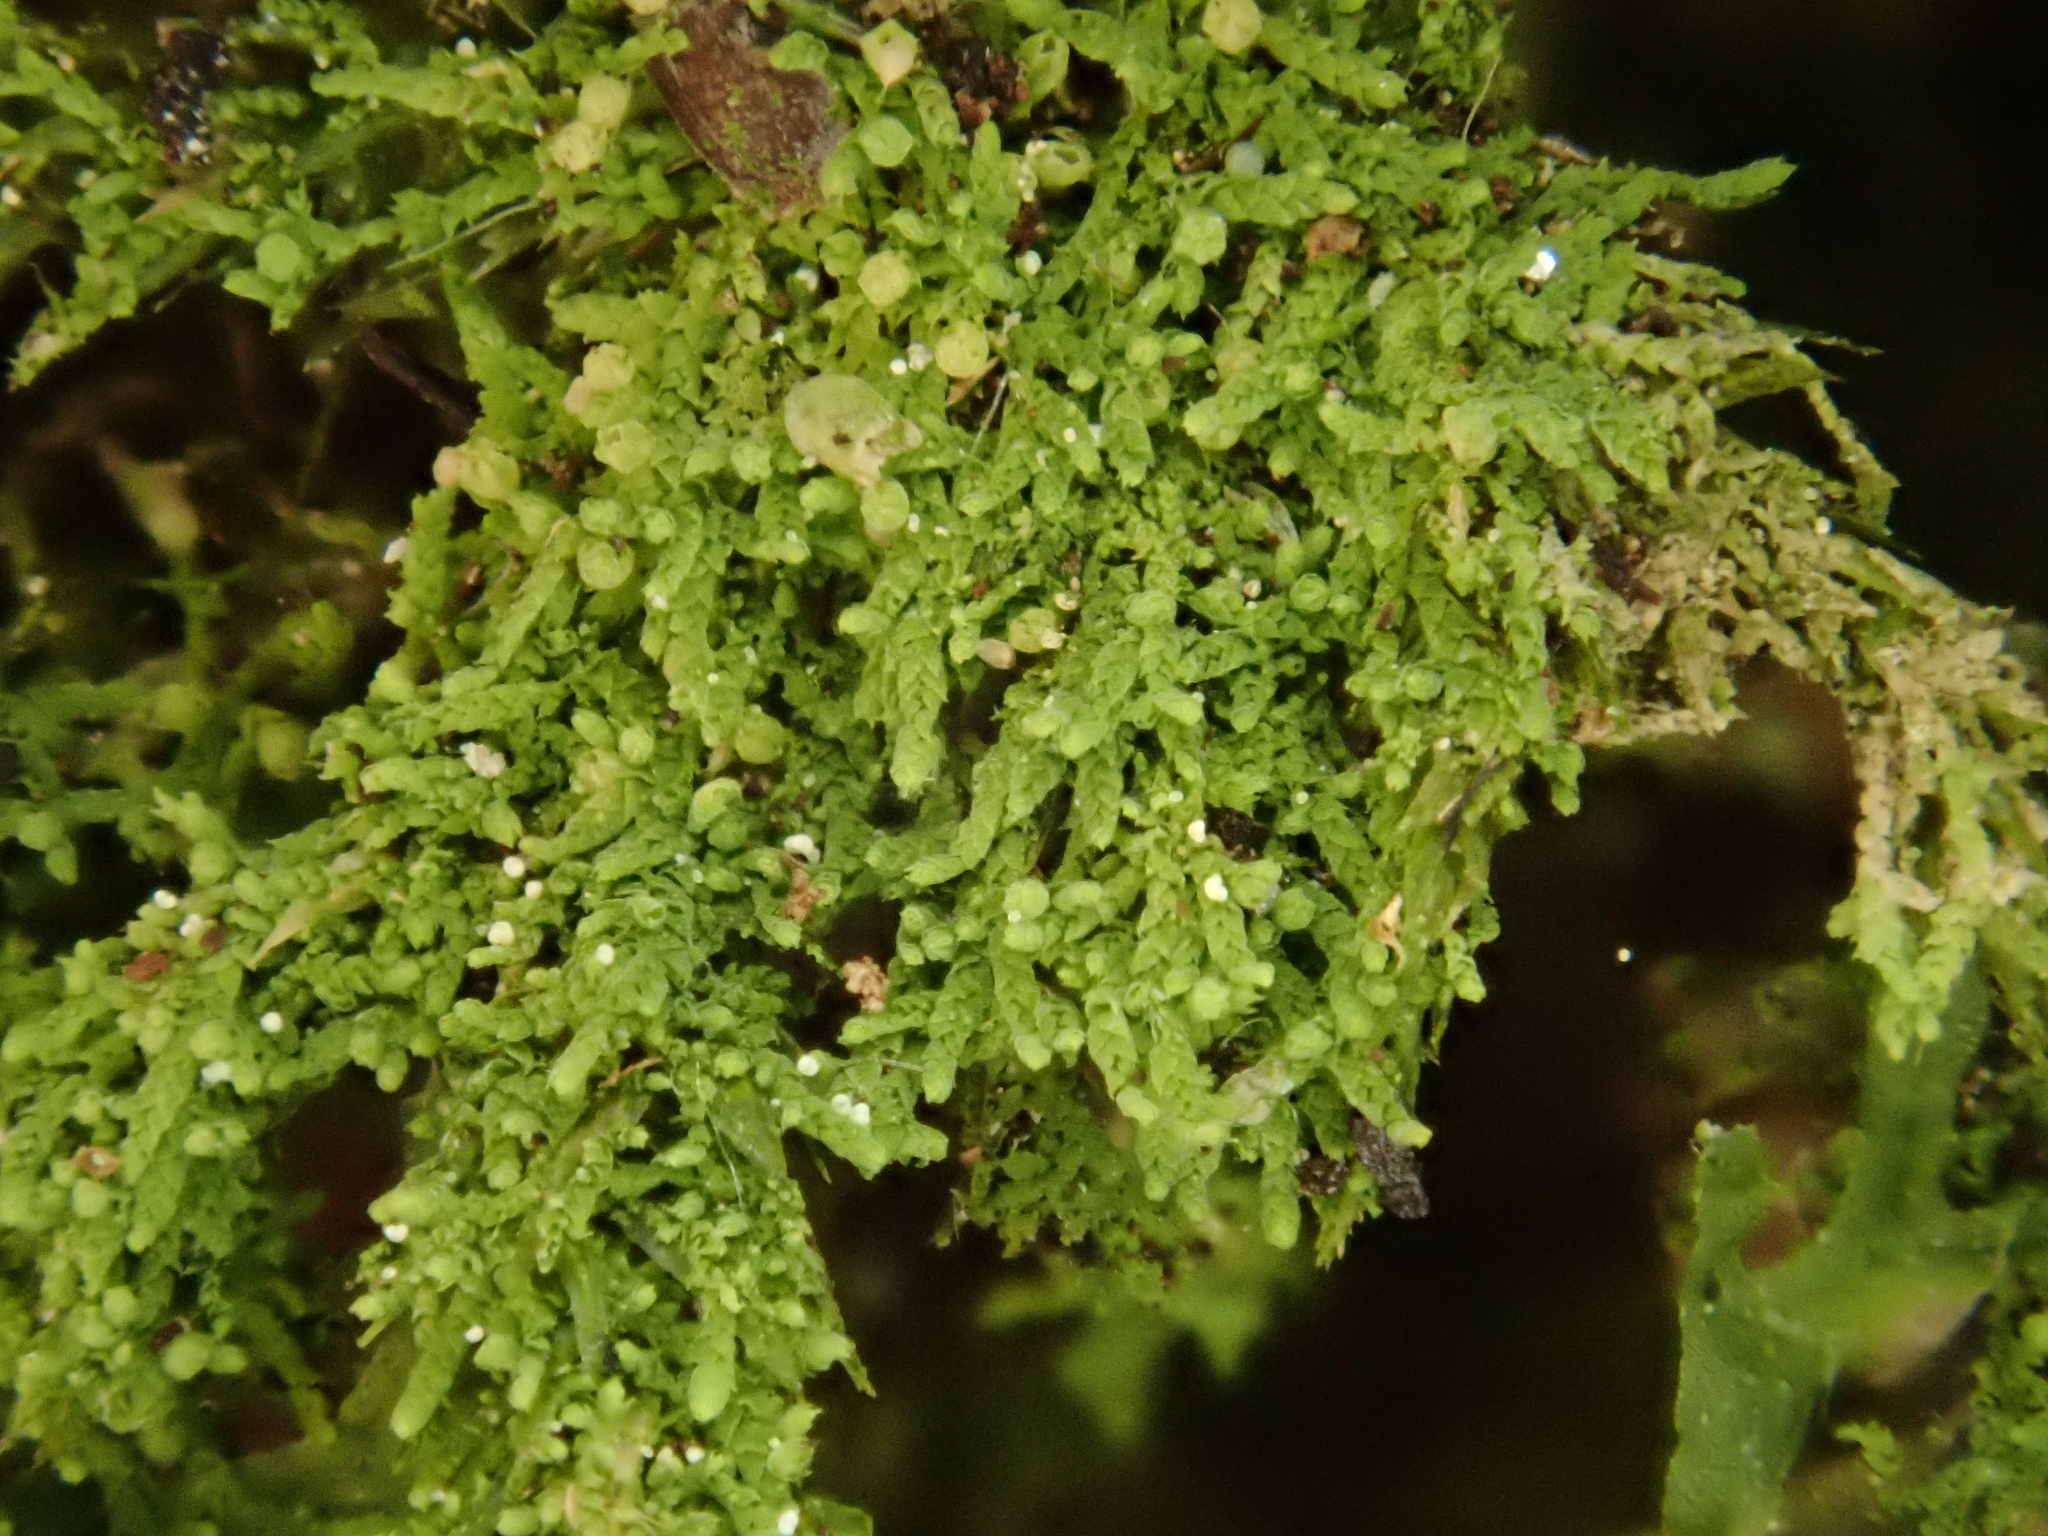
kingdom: Plantae
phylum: Marchantiophyta
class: Jungermanniopsida
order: Porellales
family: Lejeuneaceae
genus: Cololejeunea
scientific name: Cololejeunea rossettiana
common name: Rossetti's pouncewort
